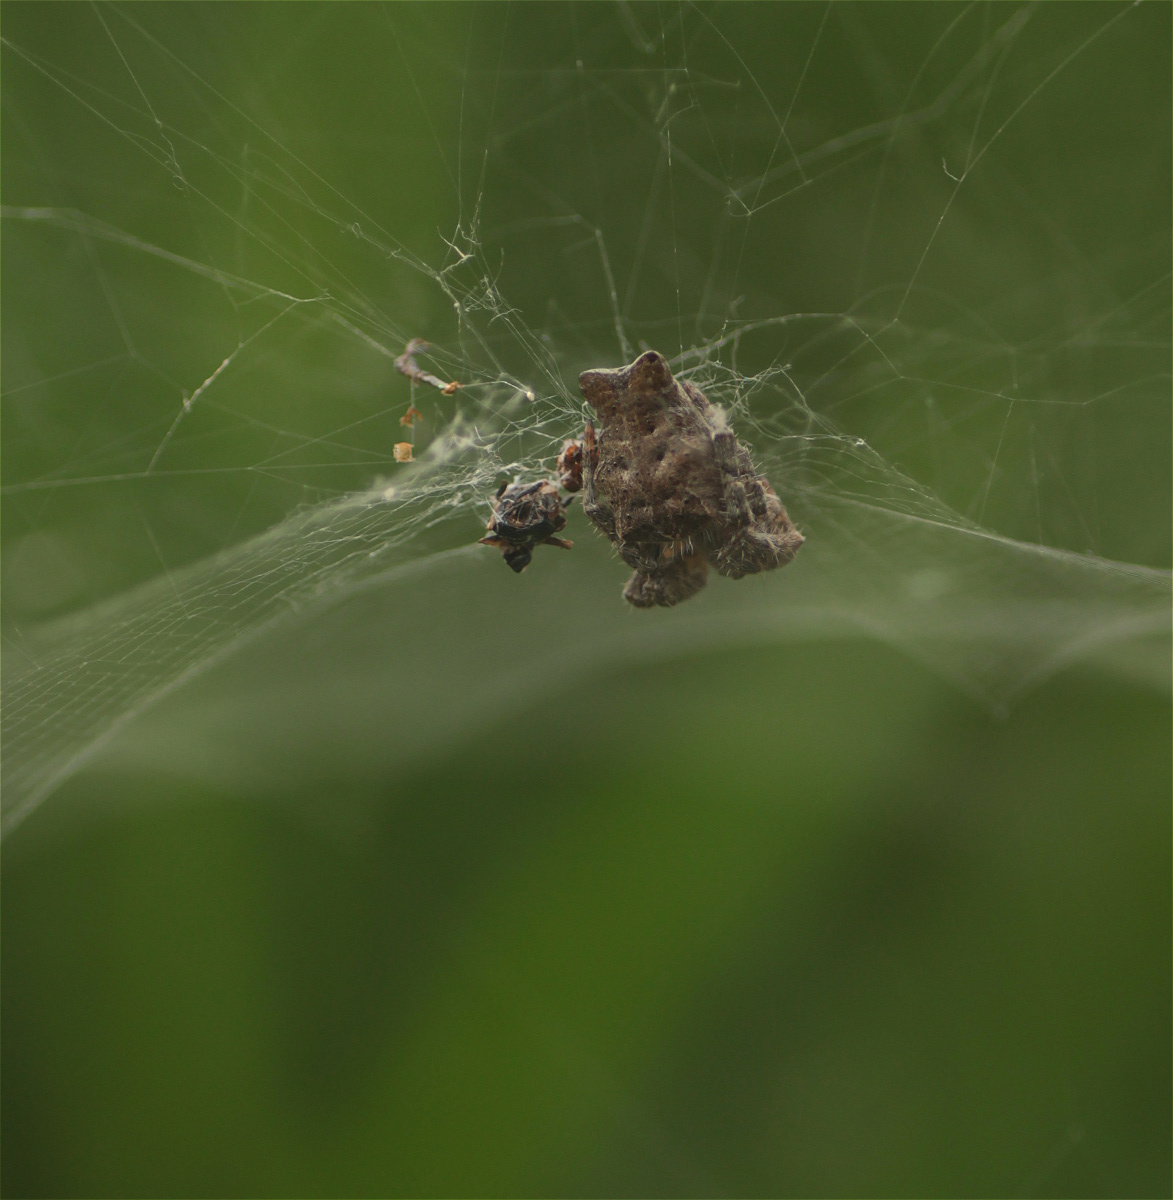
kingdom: Animalia
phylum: Arthropoda
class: Arachnida
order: Araneae
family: Araneidae
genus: Cyrtophora
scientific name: Cyrtophora citricola
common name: Orb weavers
